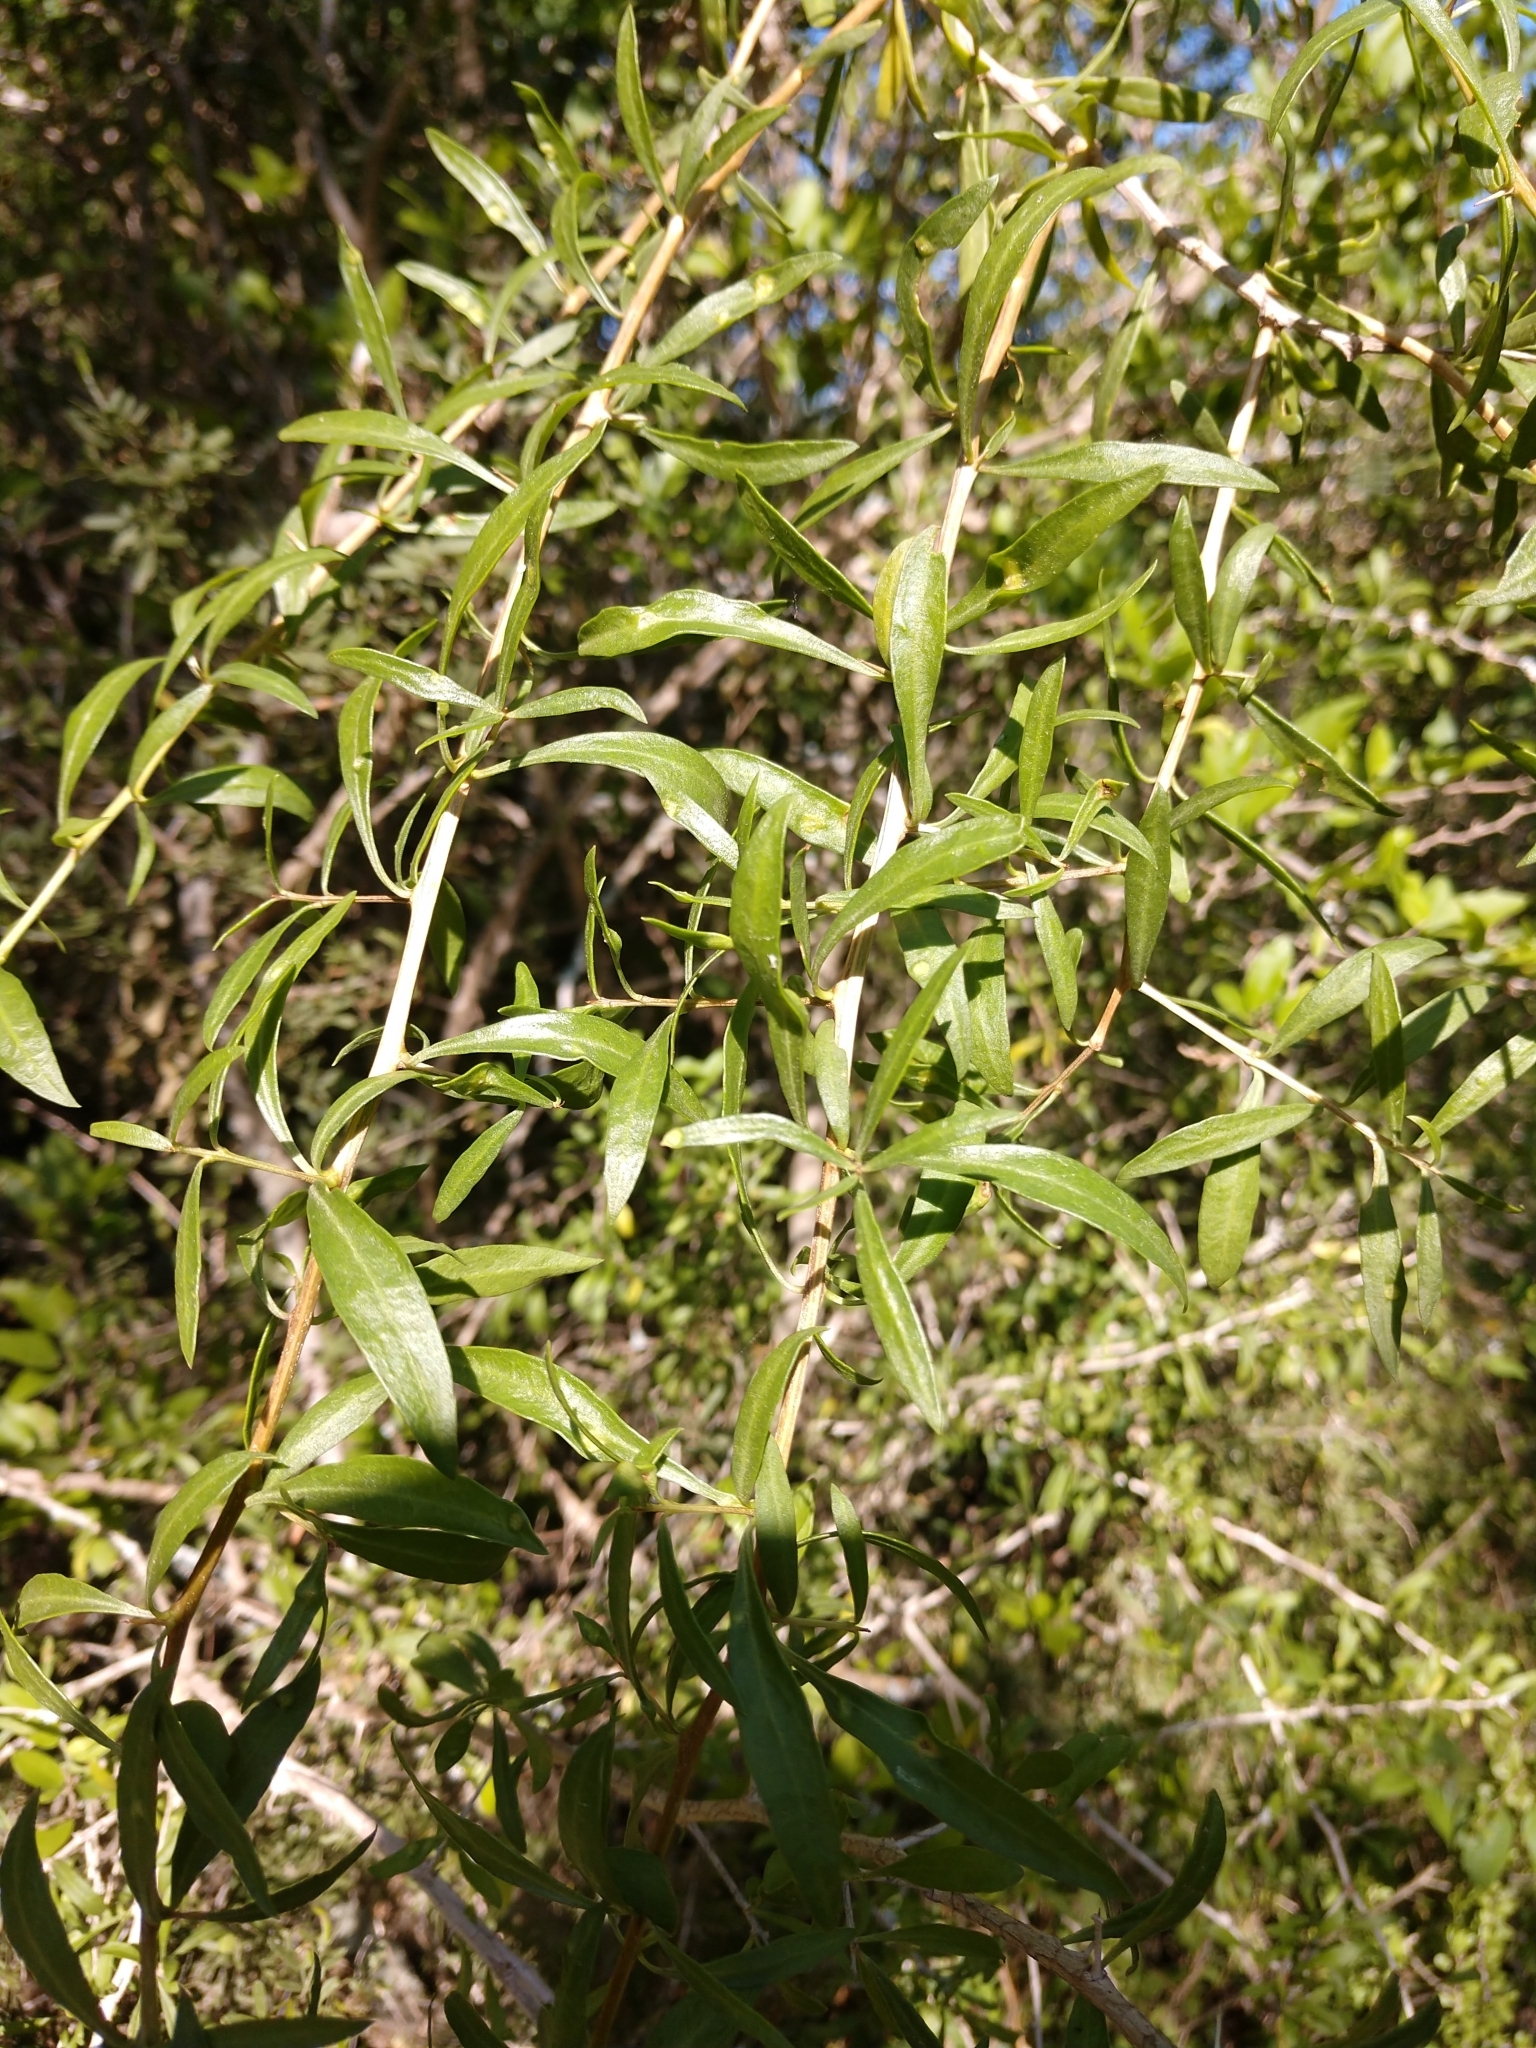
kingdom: Plantae
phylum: Tracheophyta
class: Magnoliopsida
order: Solanales
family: Solanaceae
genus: Lycium
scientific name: Lycium berlandieri
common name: Berlandier wolfberry
